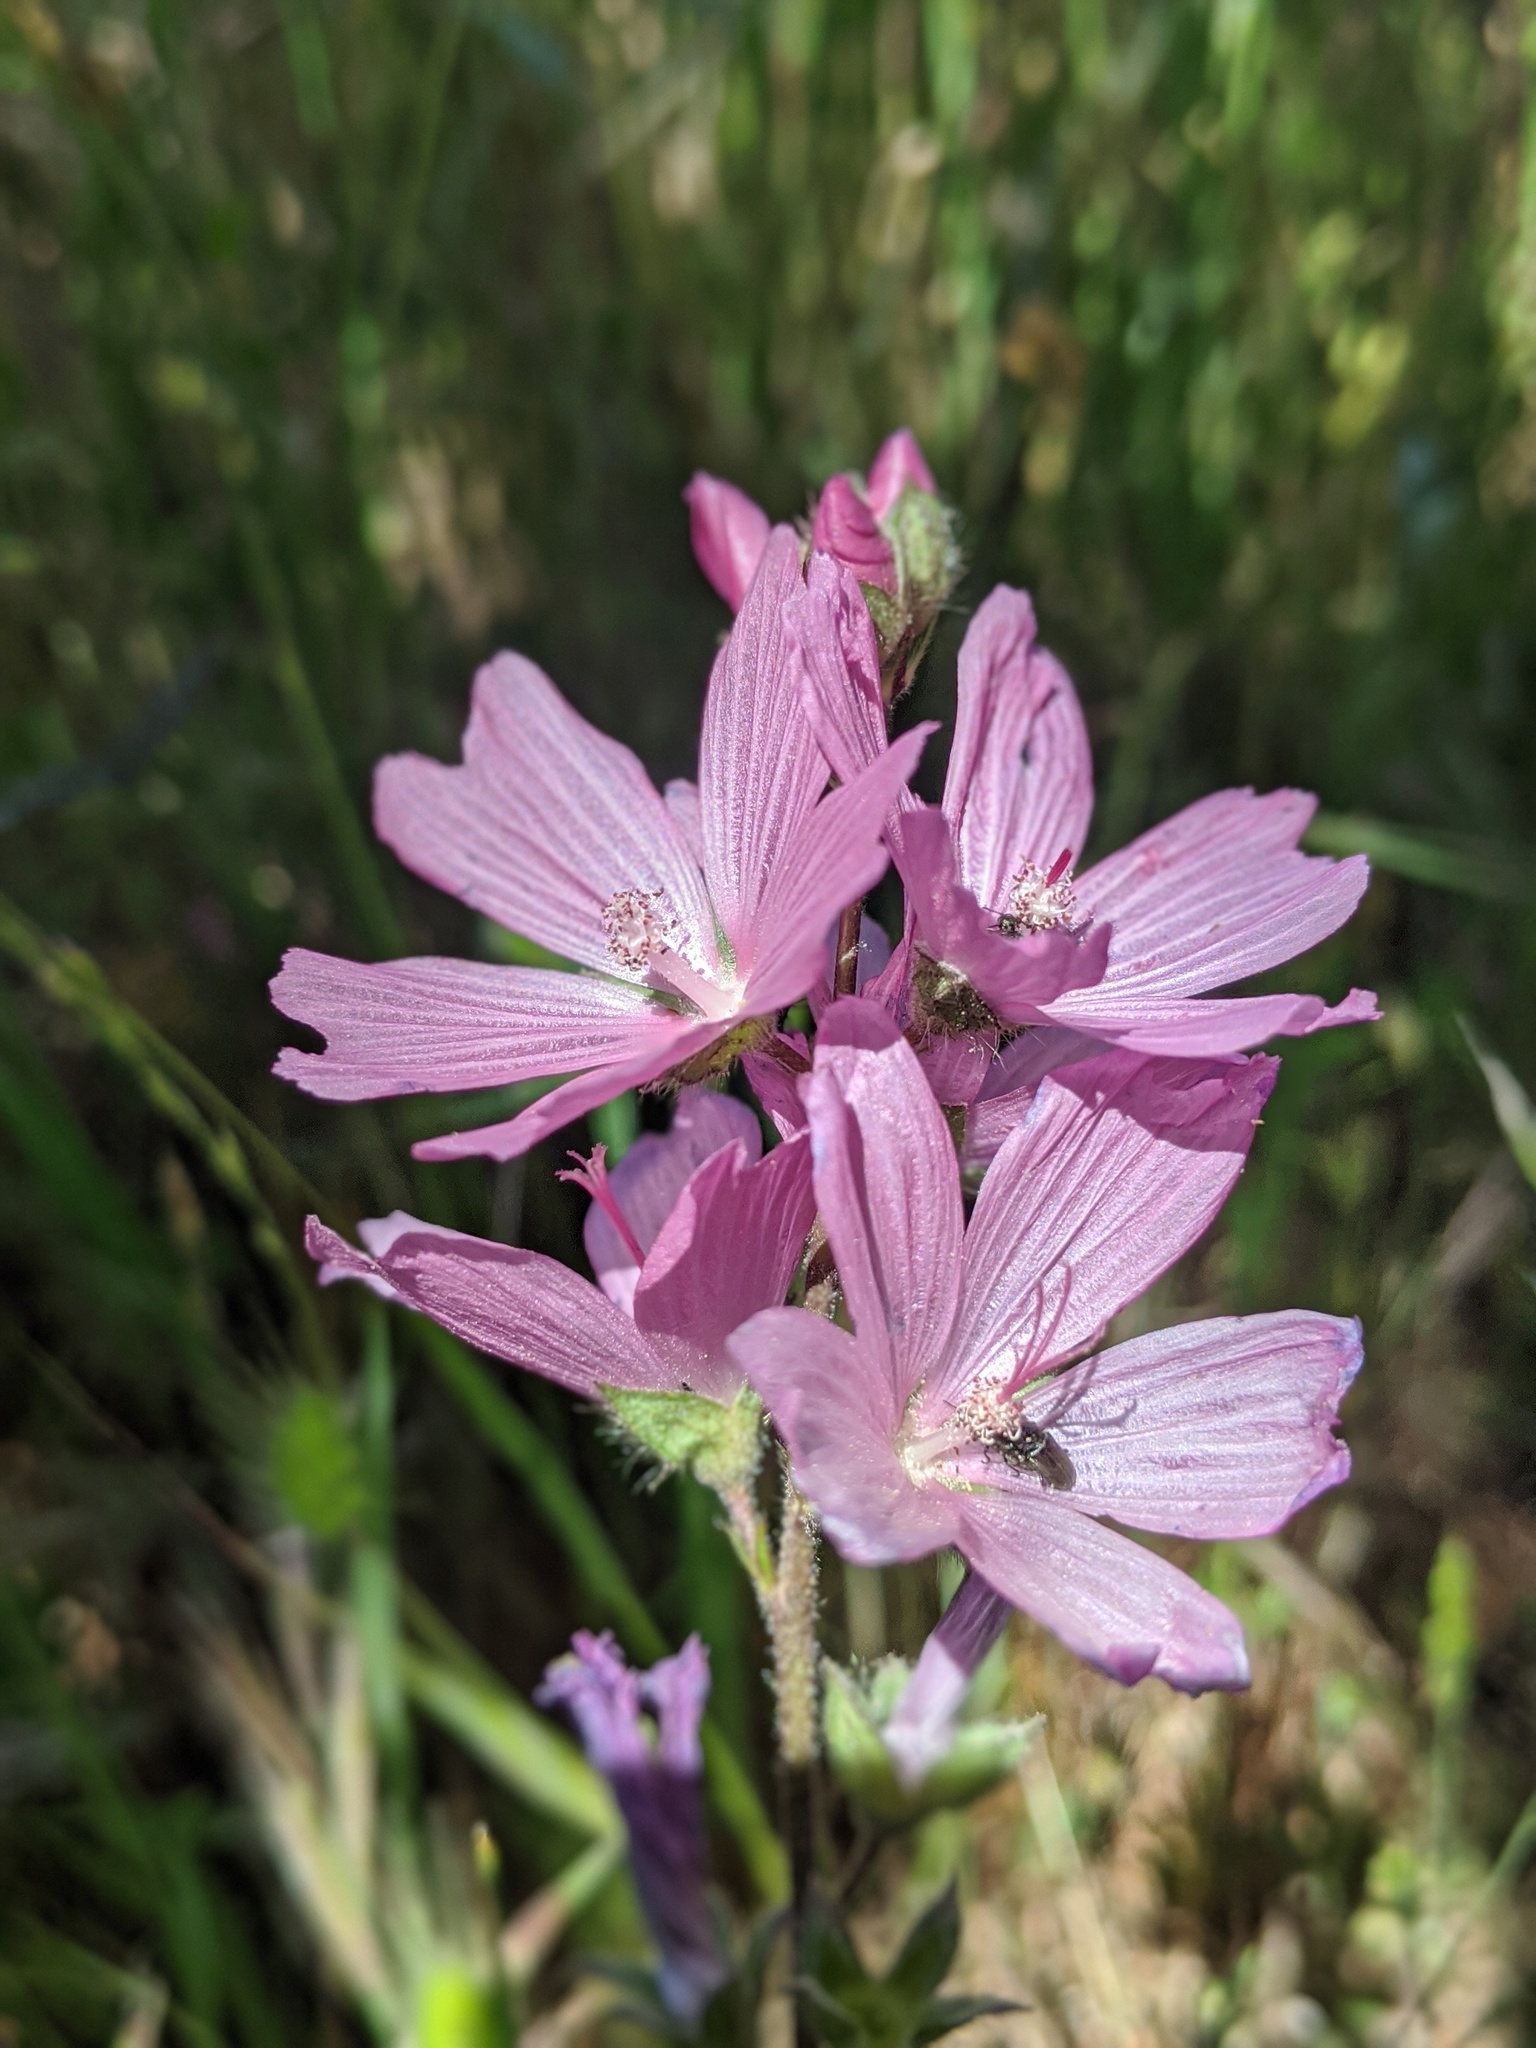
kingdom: Plantae
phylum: Tracheophyta
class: Magnoliopsida
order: Malvales
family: Malvaceae
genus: Sidalcea
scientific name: Sidalcea malviflora
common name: Greek mallow
